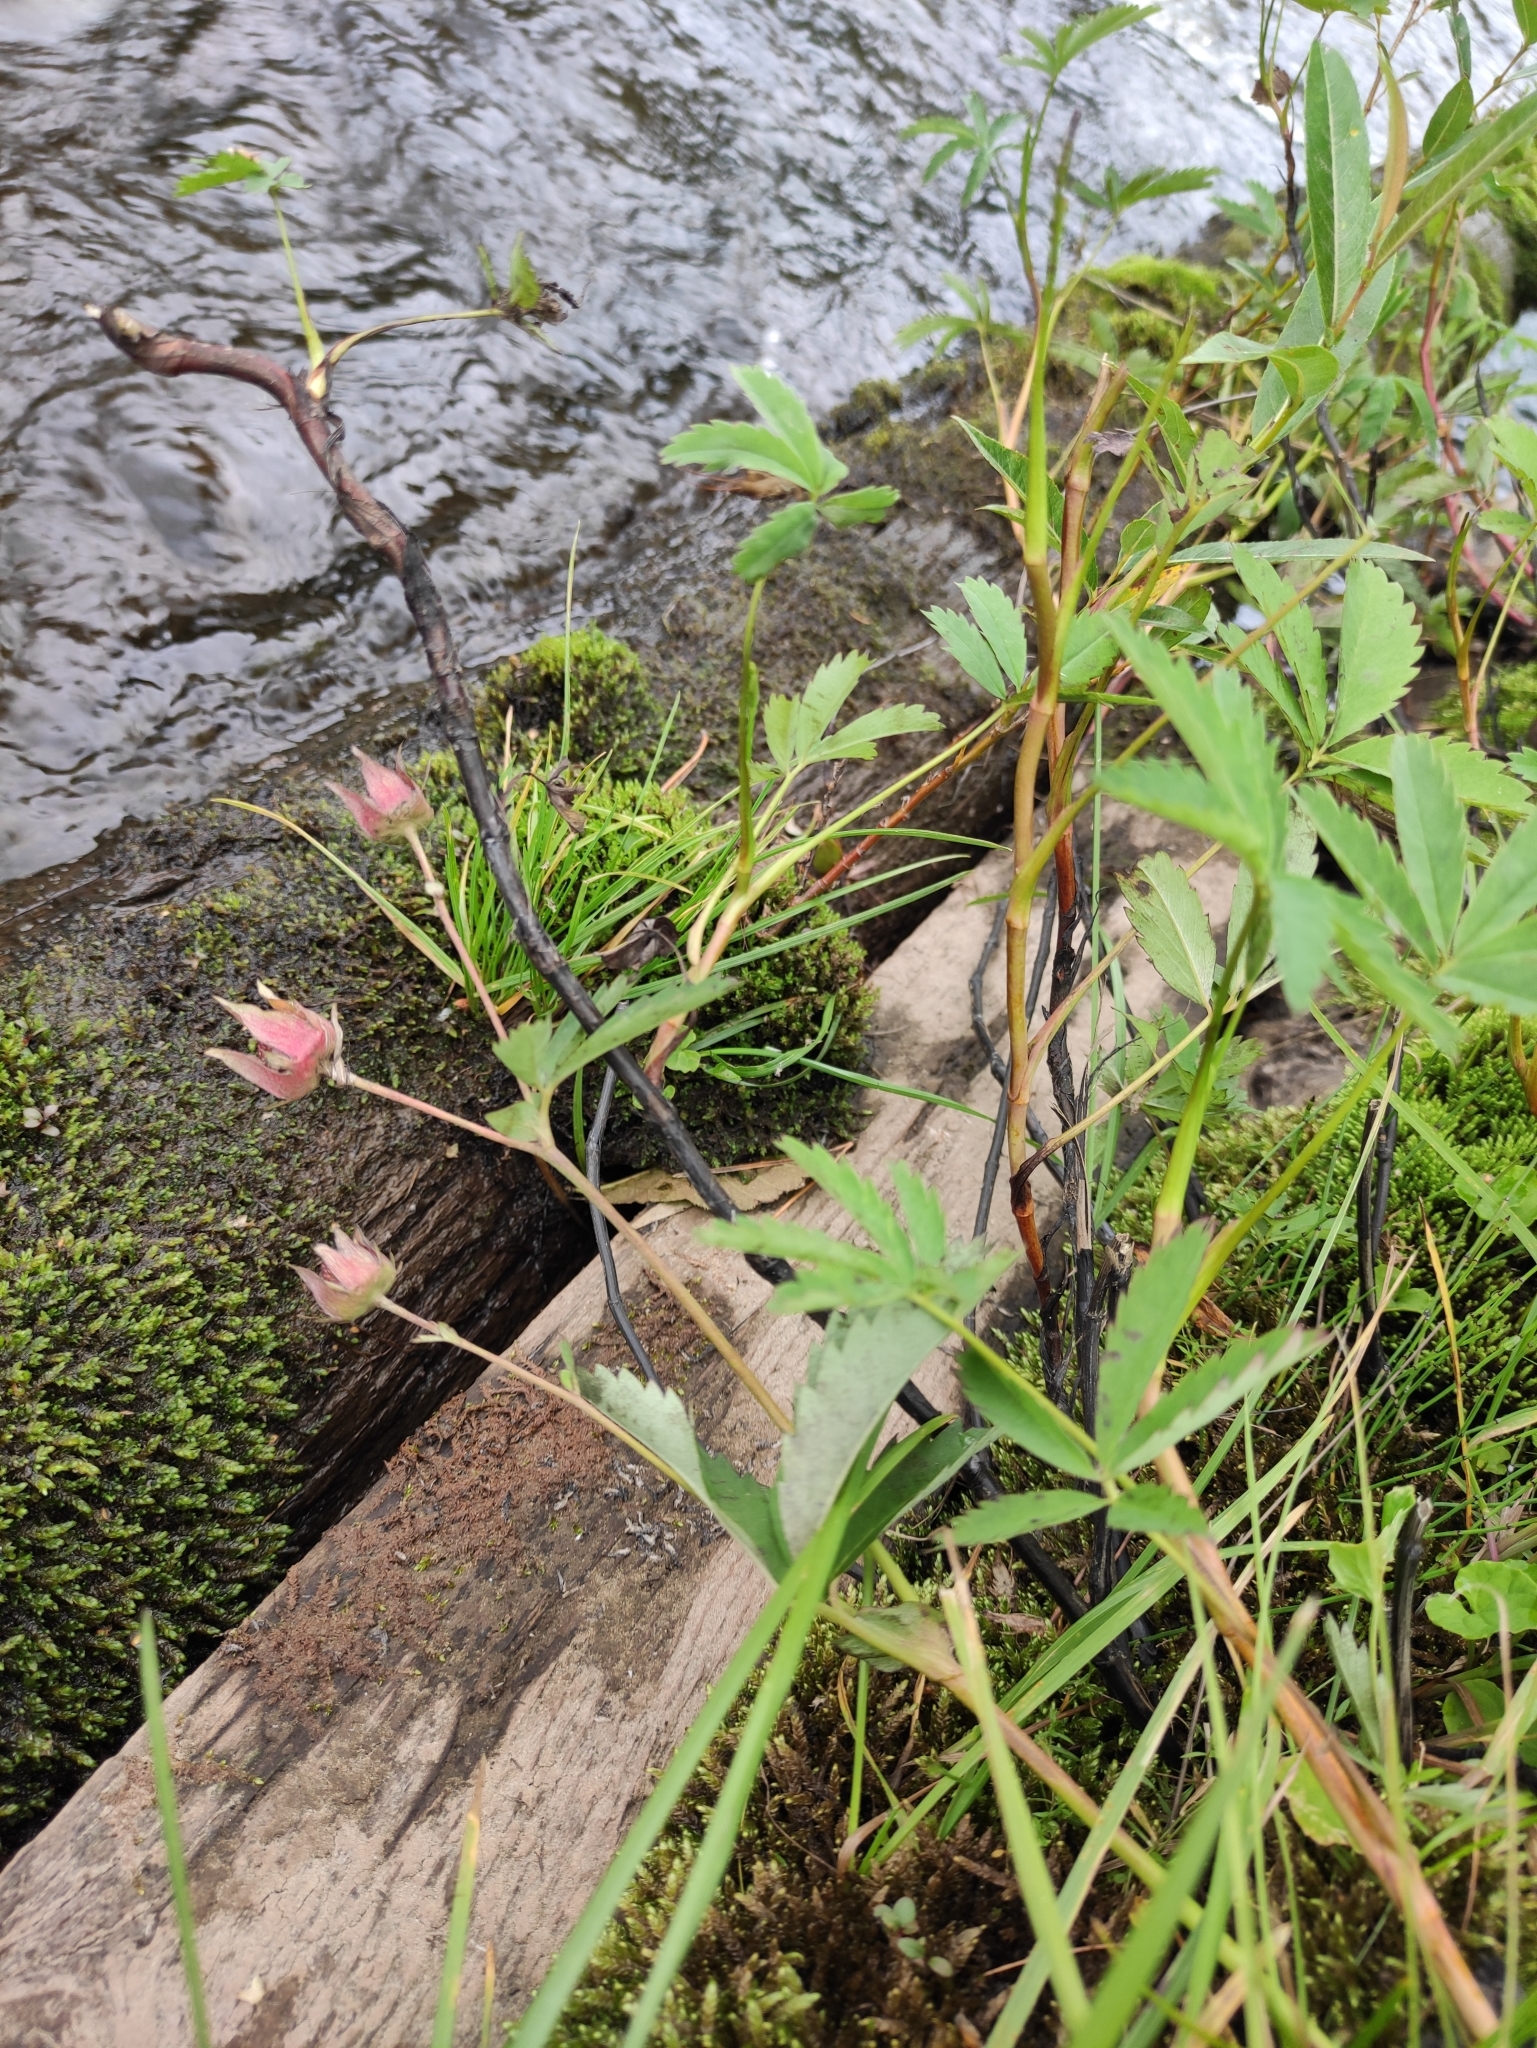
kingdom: Plantae
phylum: Tracheophyta
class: Magnoliopsida
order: Rosales
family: Rosaceae
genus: Comarum
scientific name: Comarum palustre
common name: Marsh cinquefoil
